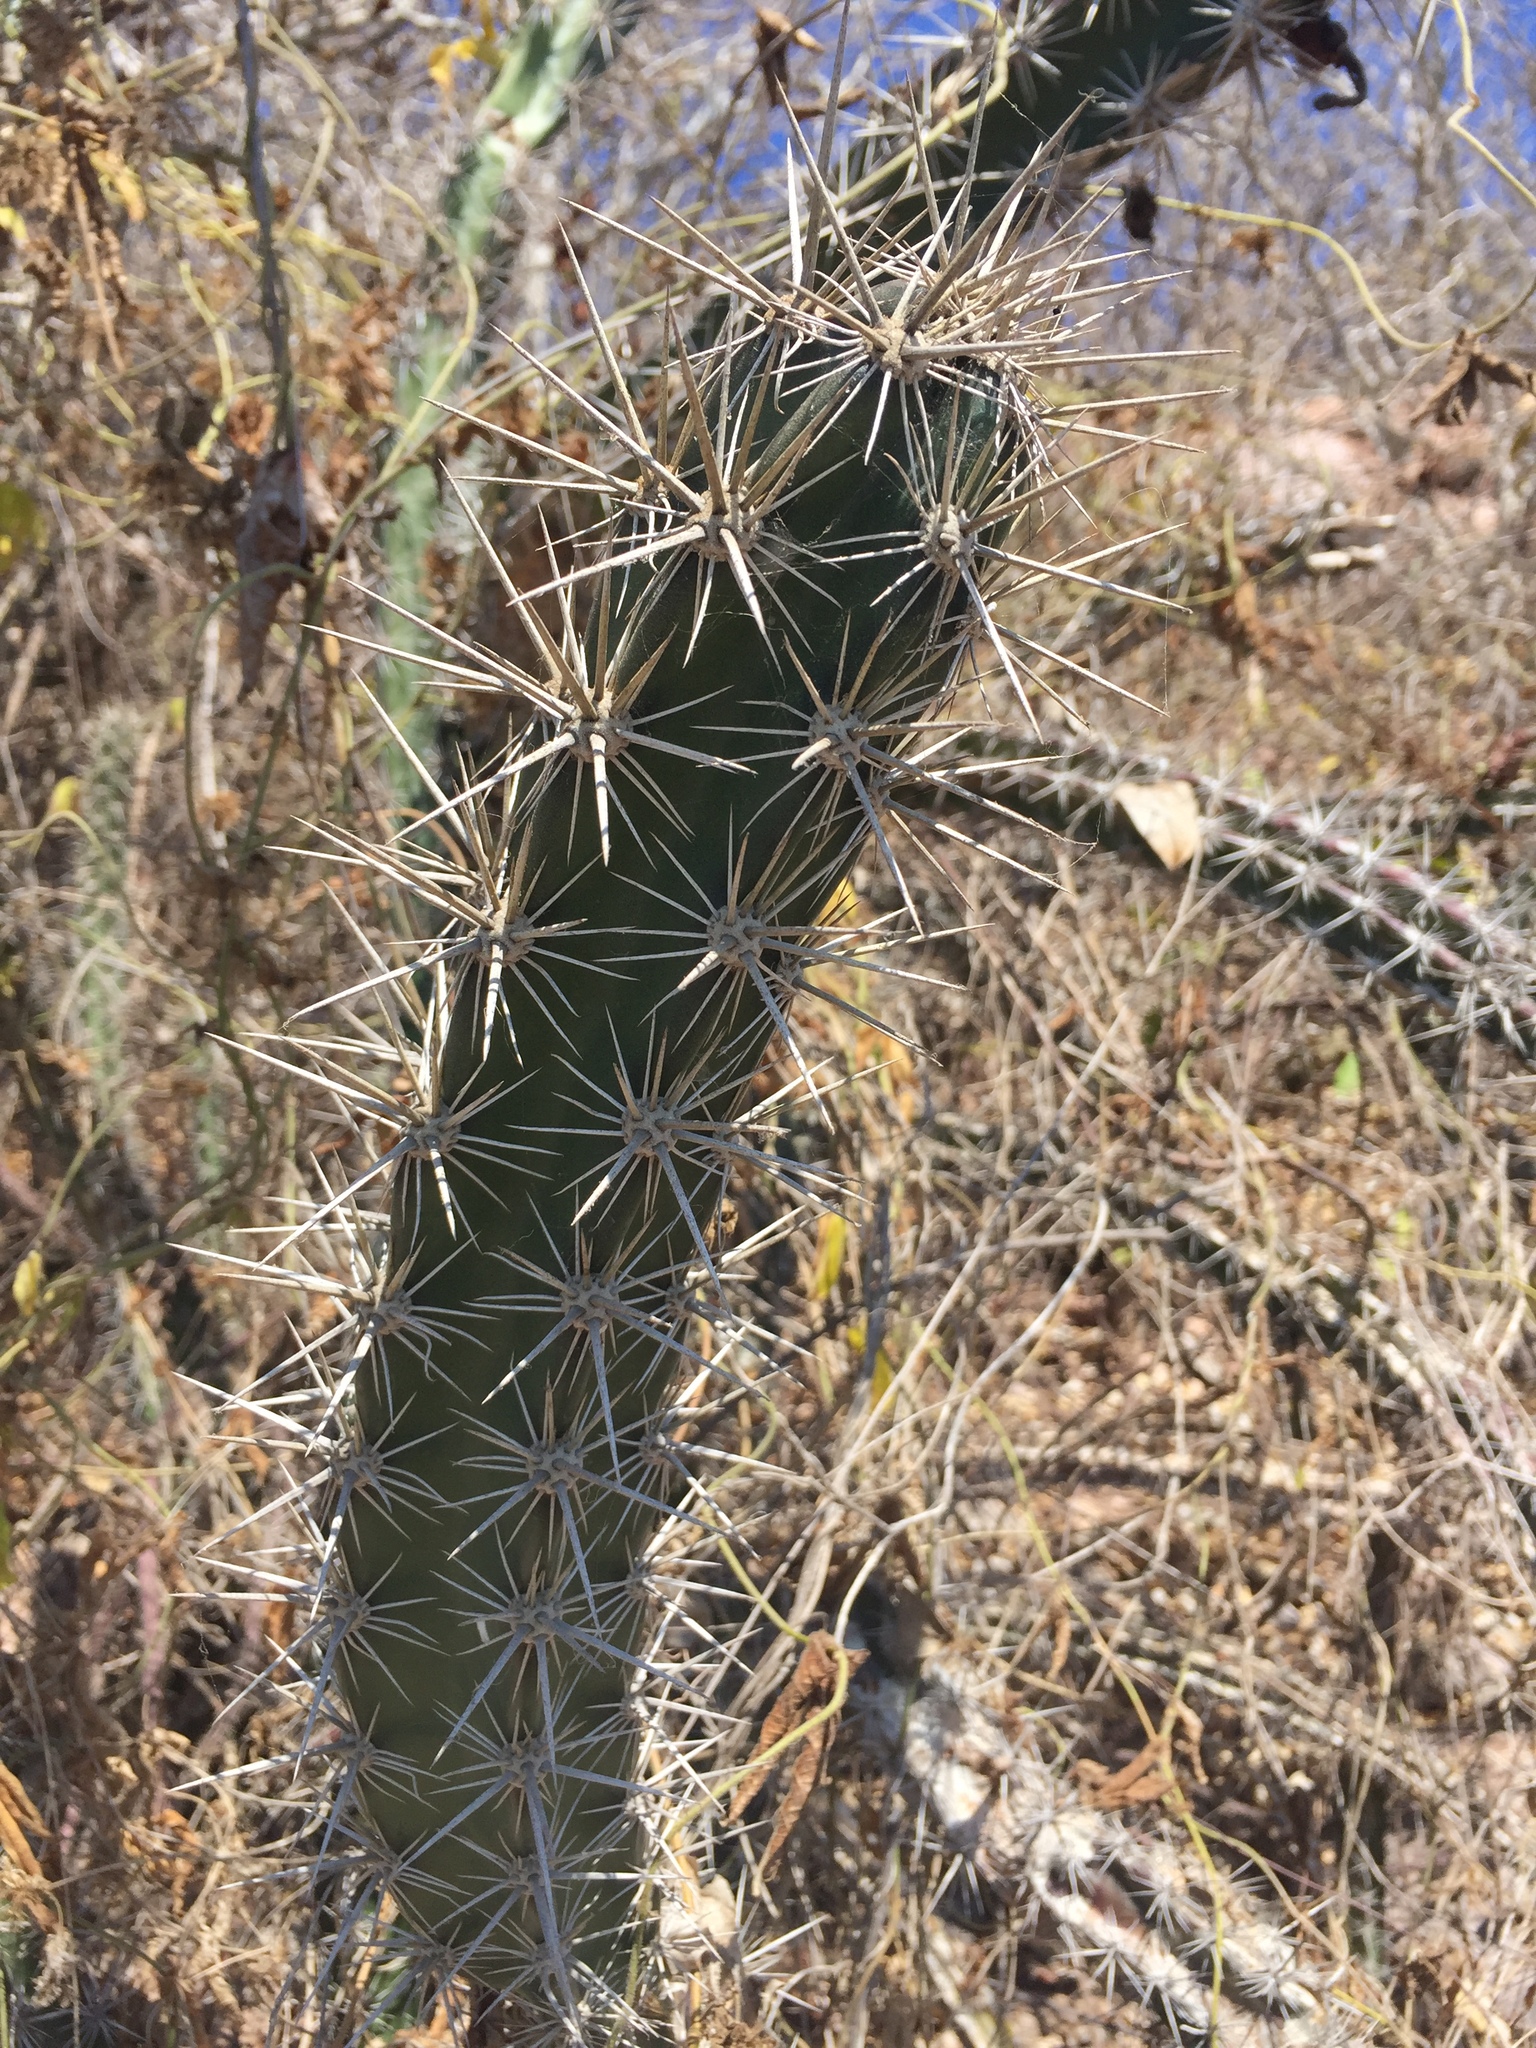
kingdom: Plantae
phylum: Tracheophyta
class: Magnoliopsida
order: Caryophyllales
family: Cactaceae
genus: Stenocereus
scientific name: Stenocereus alamosensis
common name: Octopus cactus
